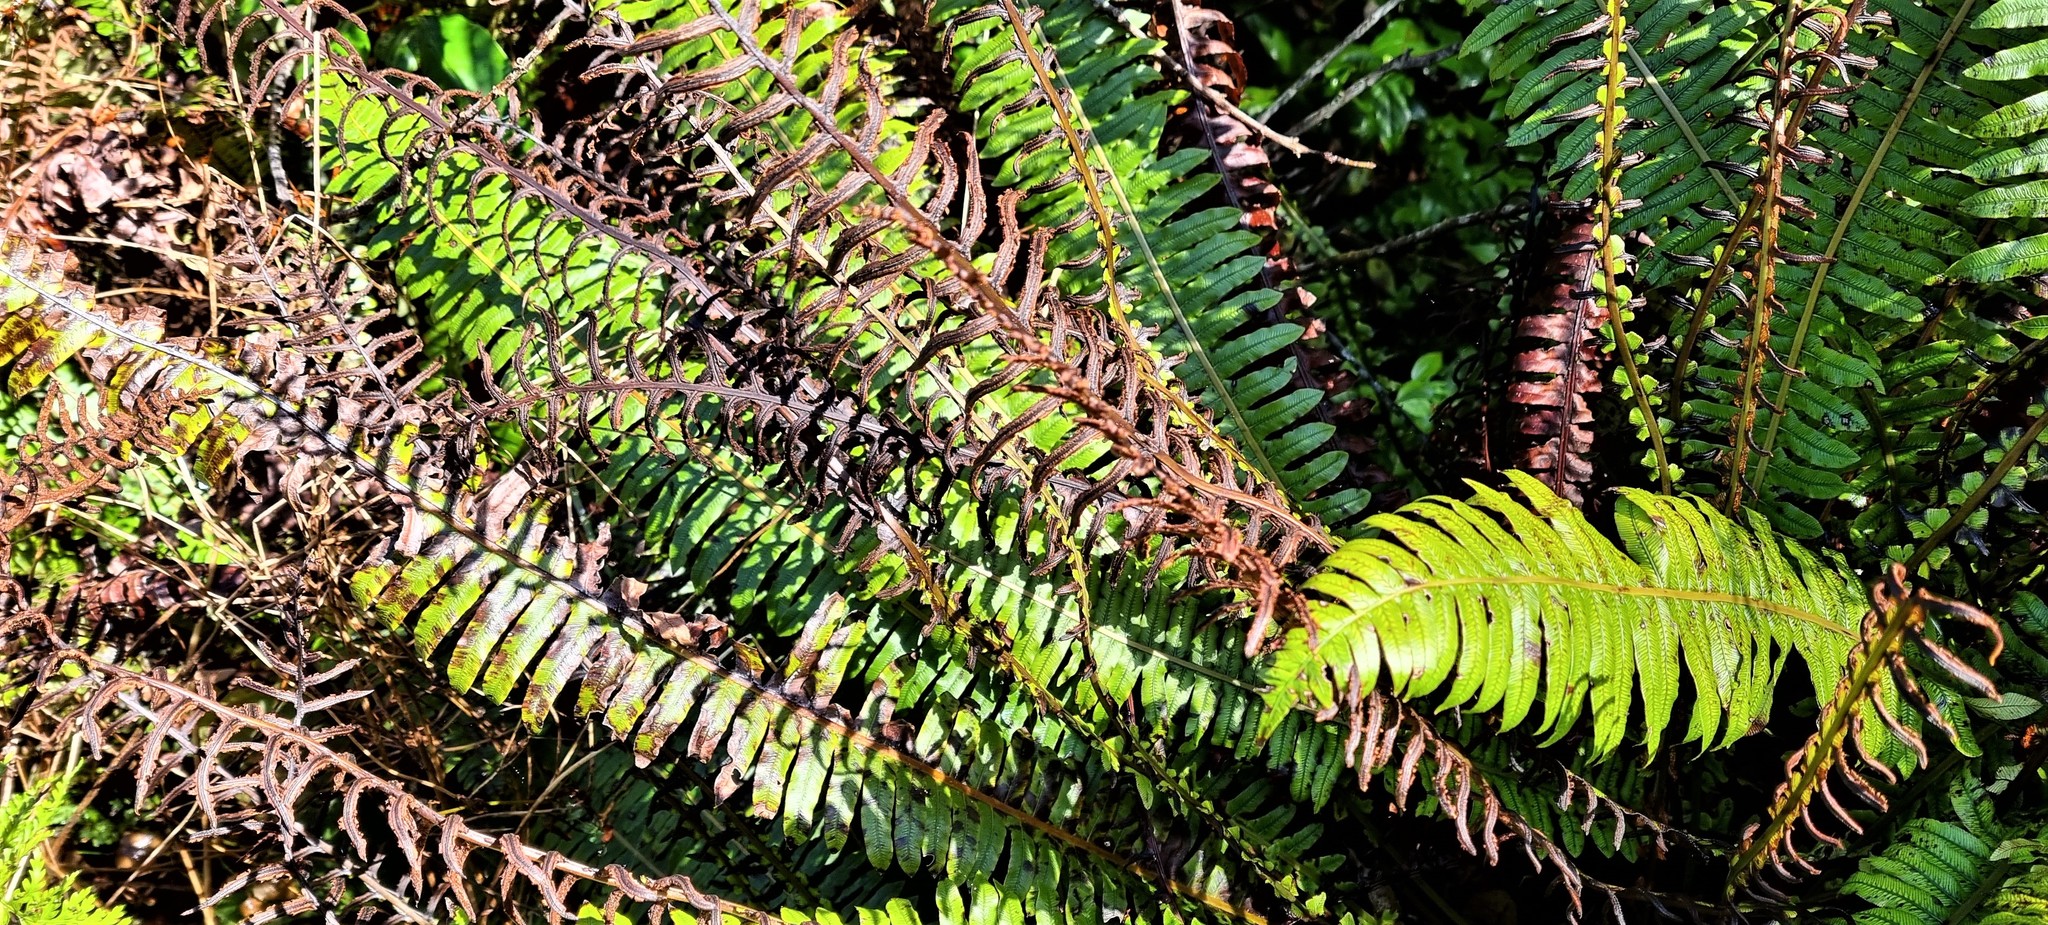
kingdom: Plantae
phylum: Tracheophyta
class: Polypodiopsida
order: Polypodiales
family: Blechnaceae
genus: Lomaria
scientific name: Lomaria discolor
